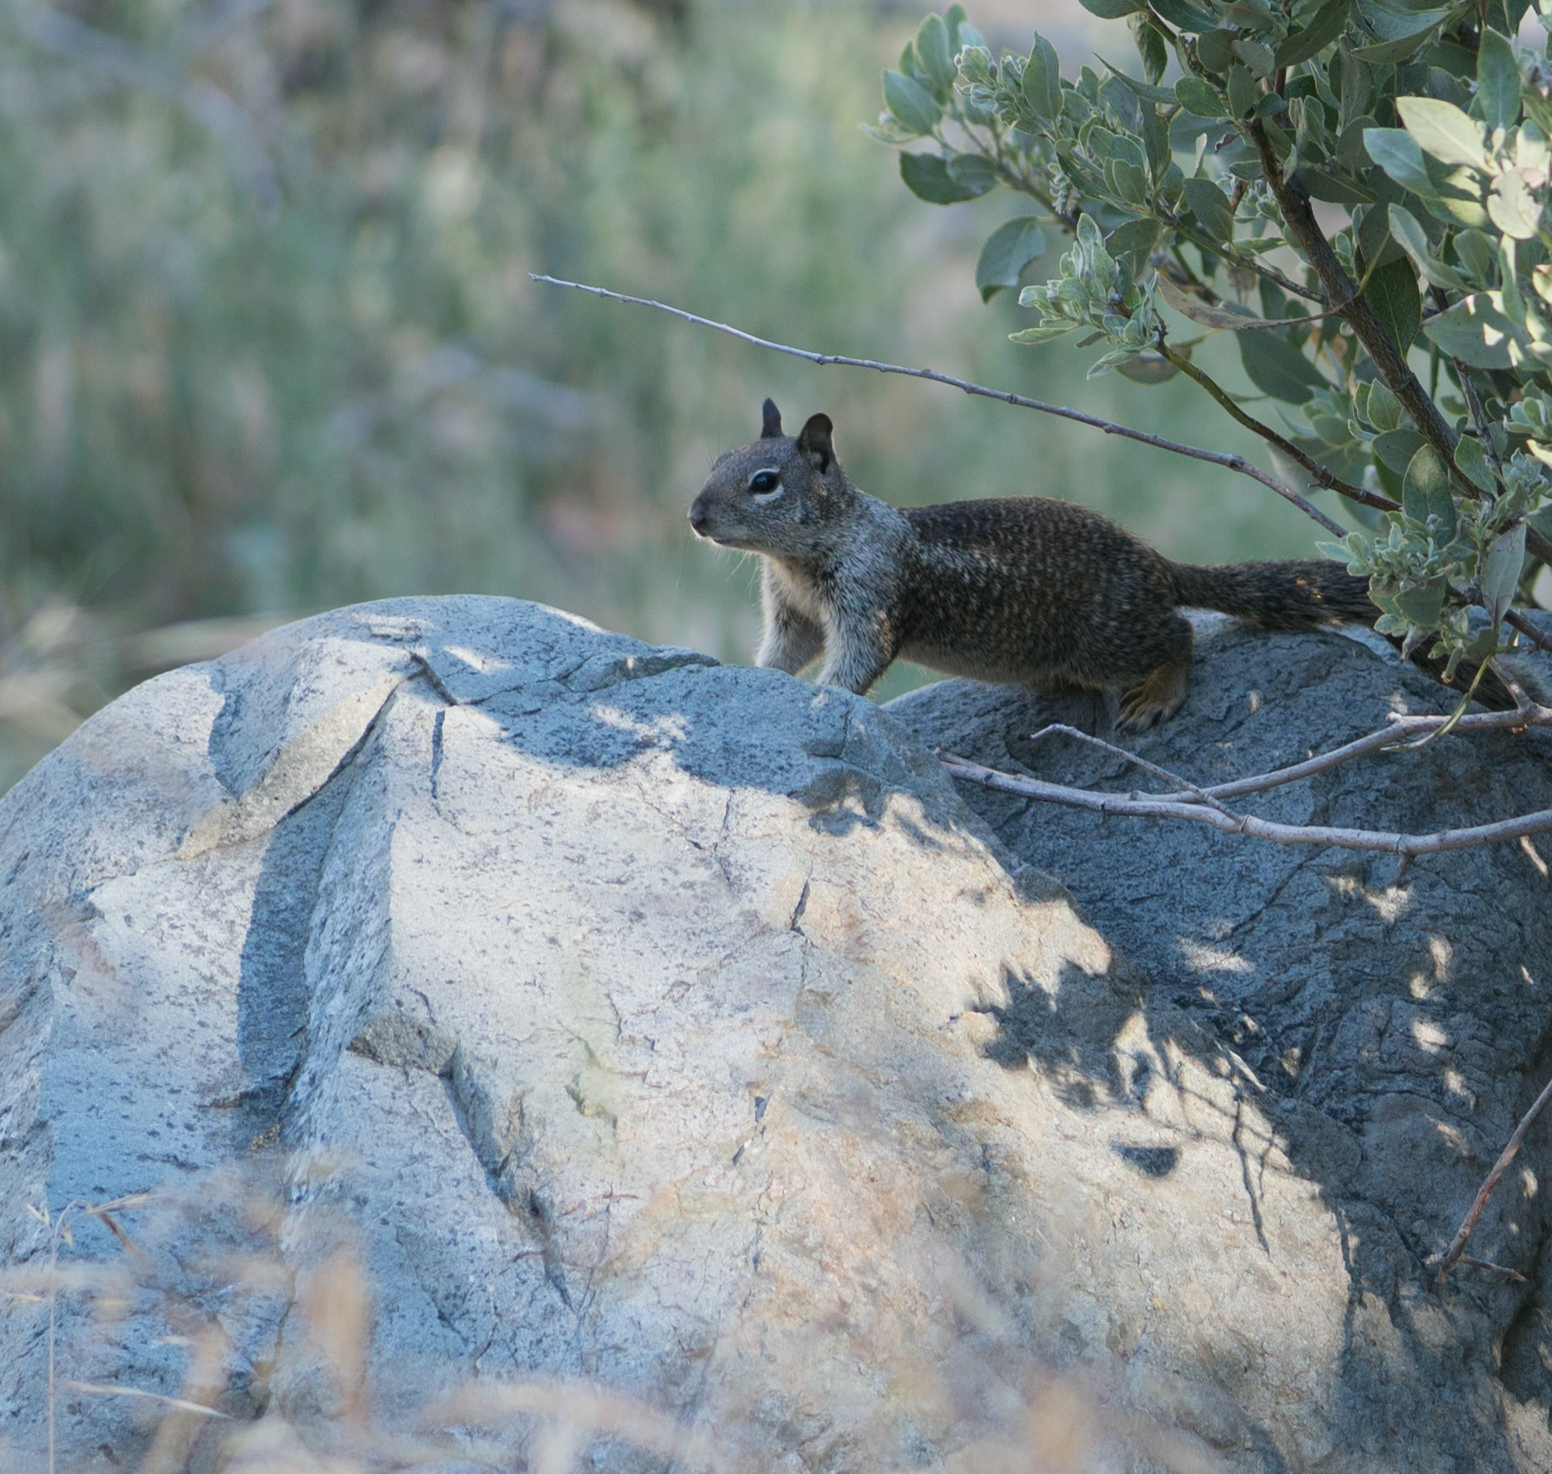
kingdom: Animalia
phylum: Chordata
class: Mammalia
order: Rodentia
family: Sciuridae
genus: Otospermophilus
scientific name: Otospermophilus beecheyi
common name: California ground squirrel
